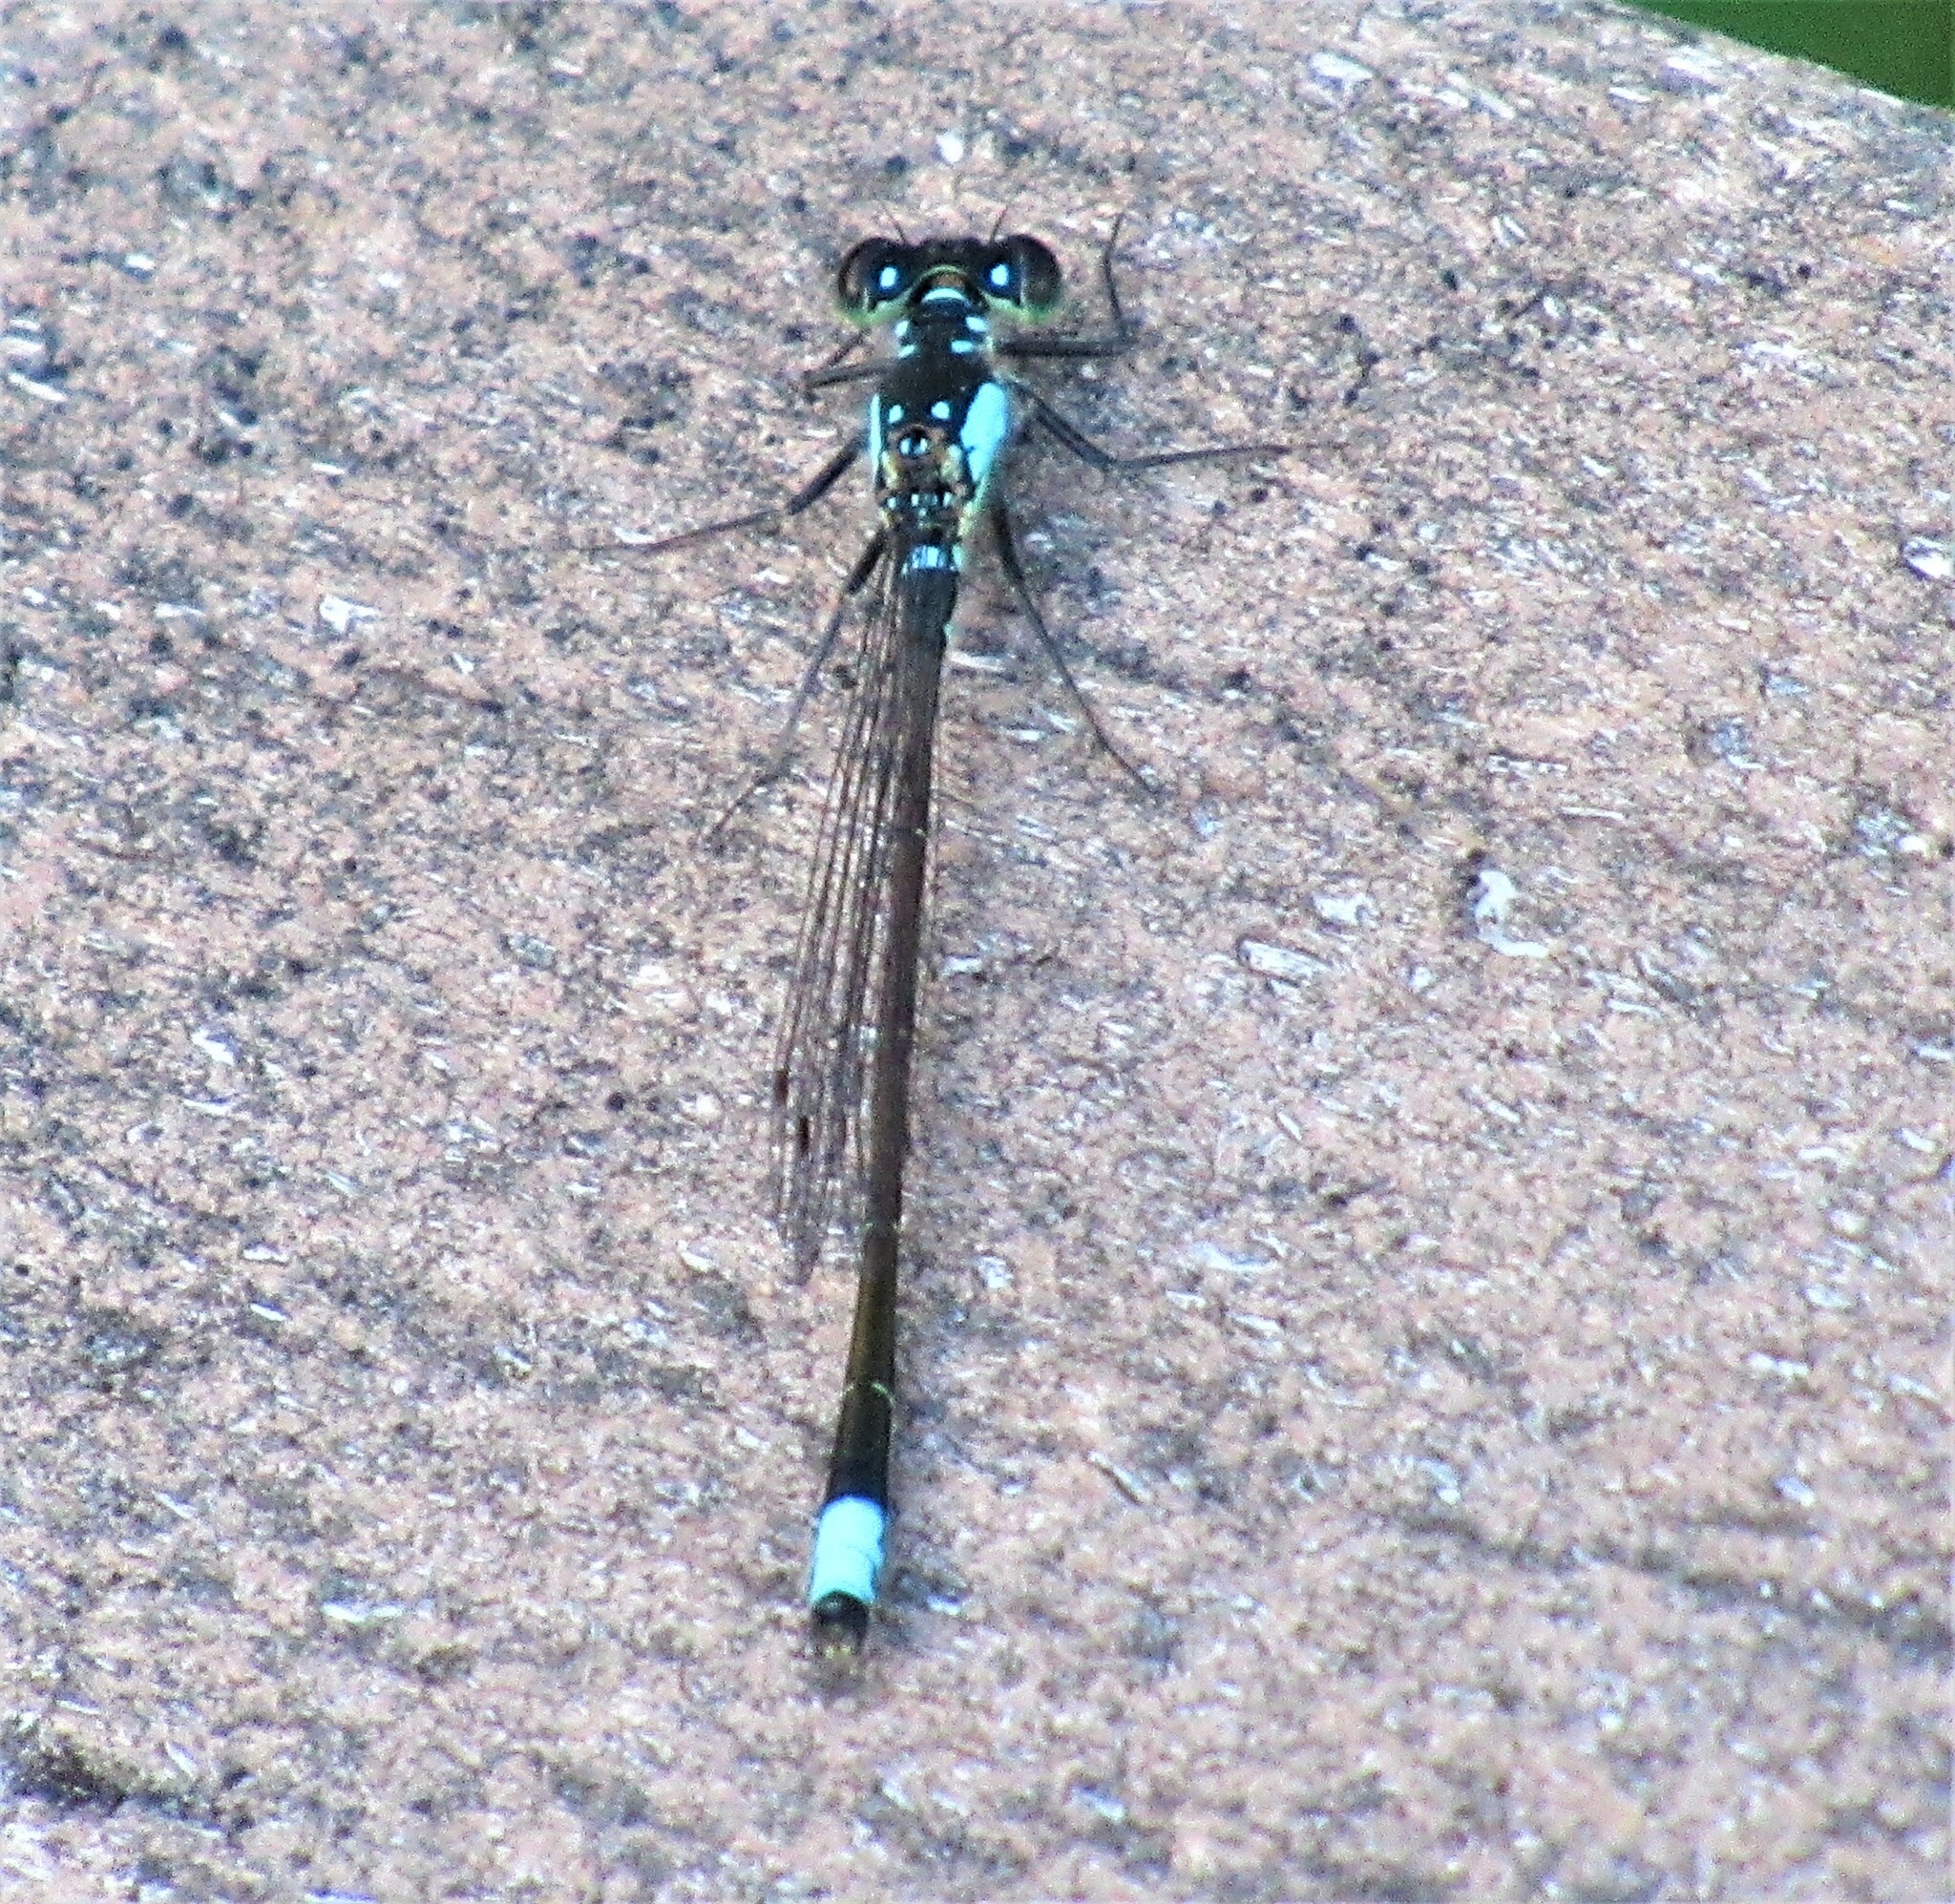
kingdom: Animalia
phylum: Arthropoda
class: Insecta
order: Odonata
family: Coenagrionidae
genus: Ischnura
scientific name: Ischnura cervula
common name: Pacific forktail
